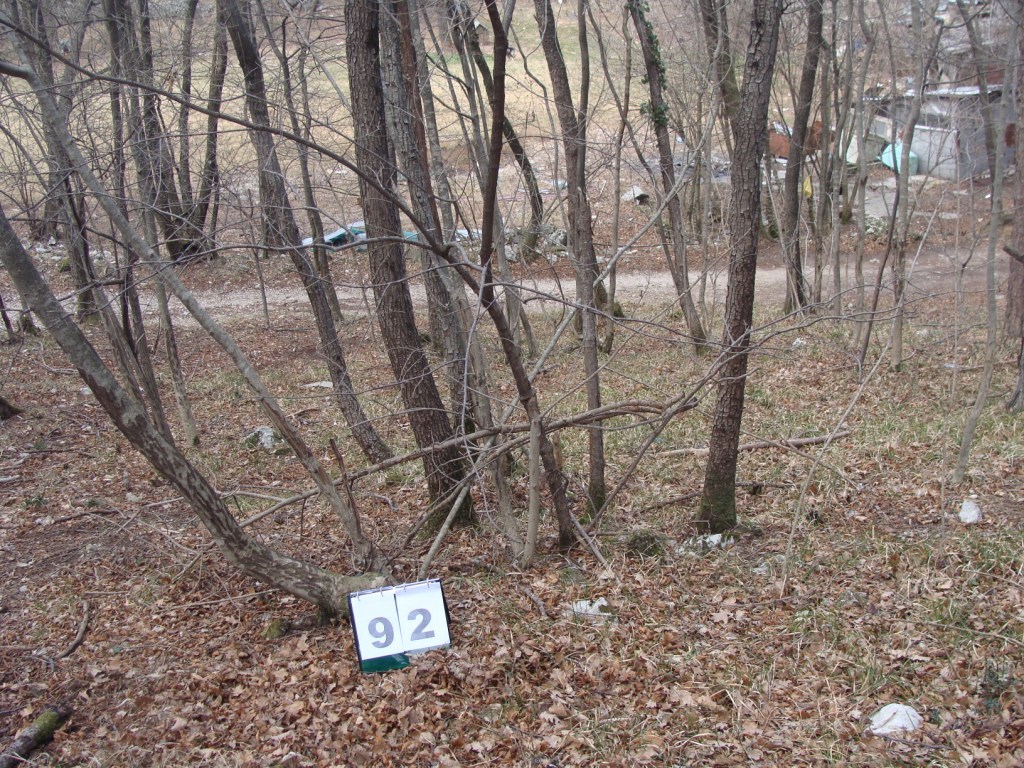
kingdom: Plantae
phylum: Tracheophyta
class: Magnoliopsida
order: Cornales
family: Cornaceae
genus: Cornus
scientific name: Cornus mas
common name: Cornelian-cherry
